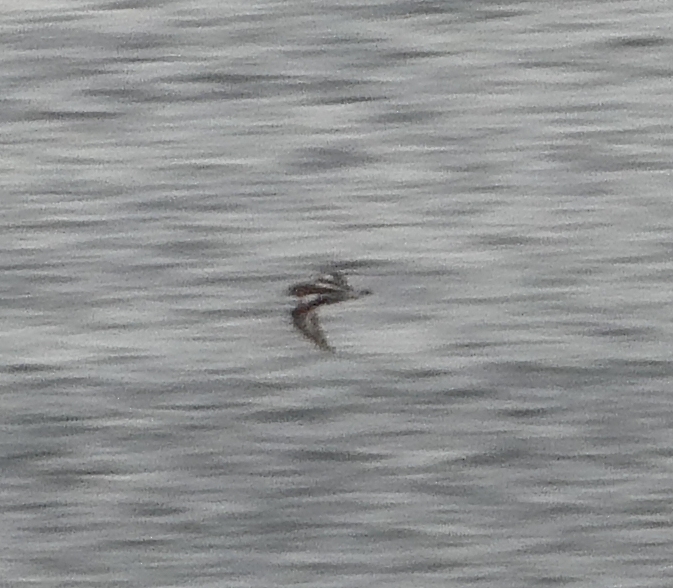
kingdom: Animalia
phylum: Chordata
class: Aves
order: Charadriiformes
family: Scolopacidae
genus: Arenaria
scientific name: Arenaria interpres
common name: Ruddy turnstone
